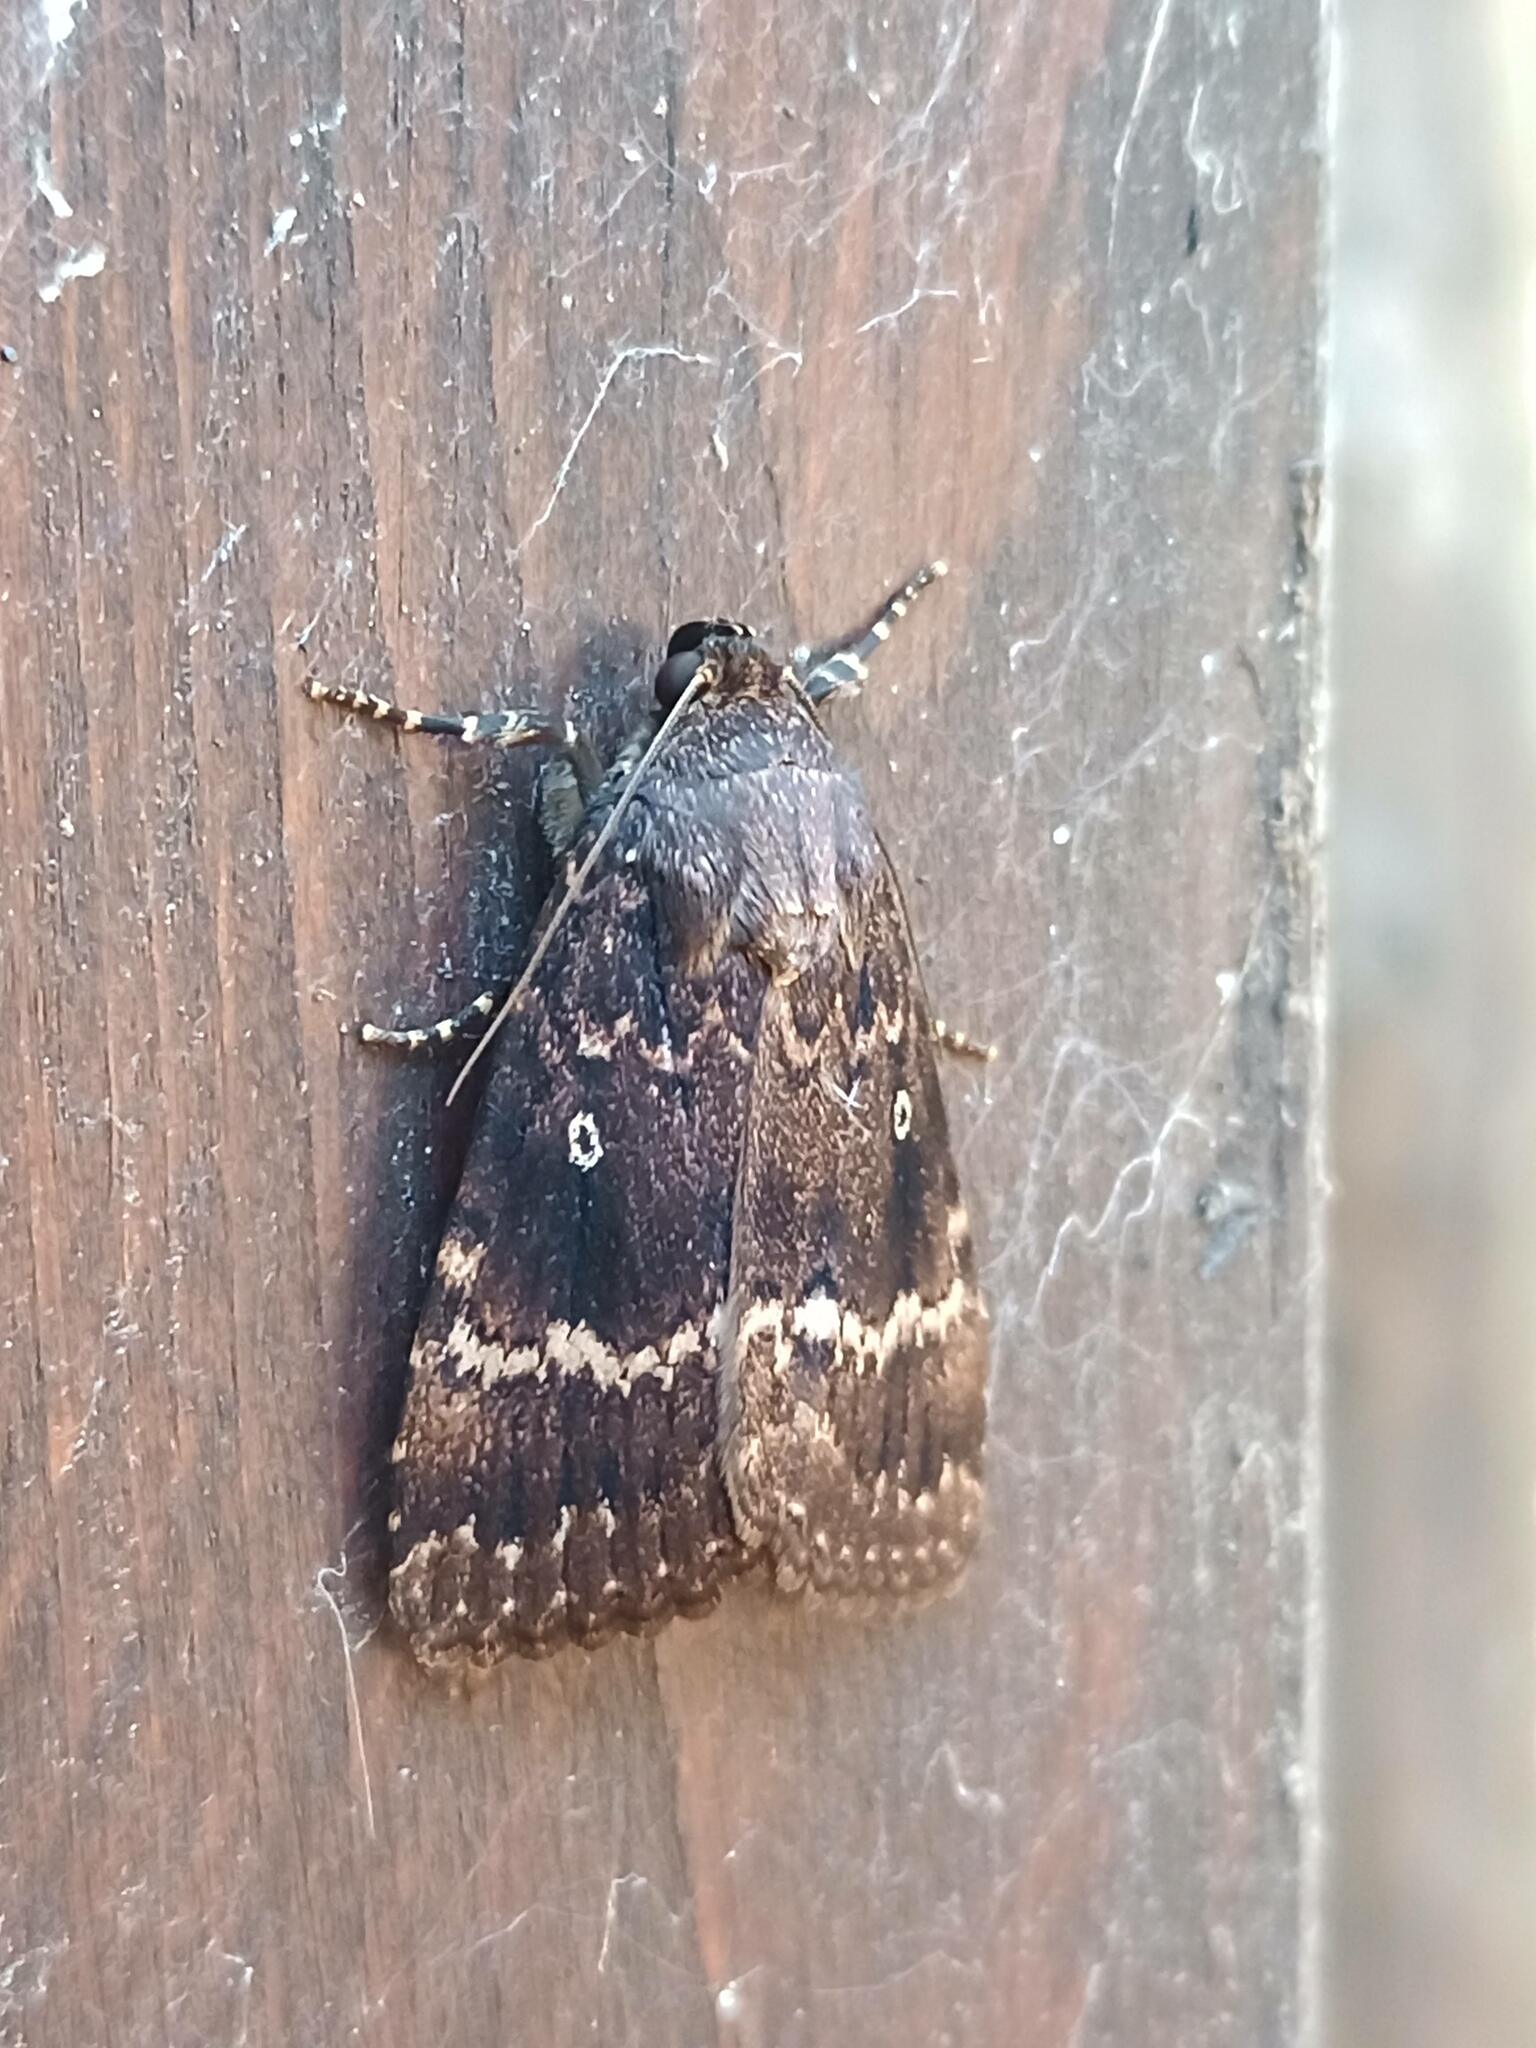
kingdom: Animalia
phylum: Arthropoda
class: Insecta
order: Lepidoptera
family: Noctuidae
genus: Amphipyra
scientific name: Amphipyra pyramidea
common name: Copper underwing
